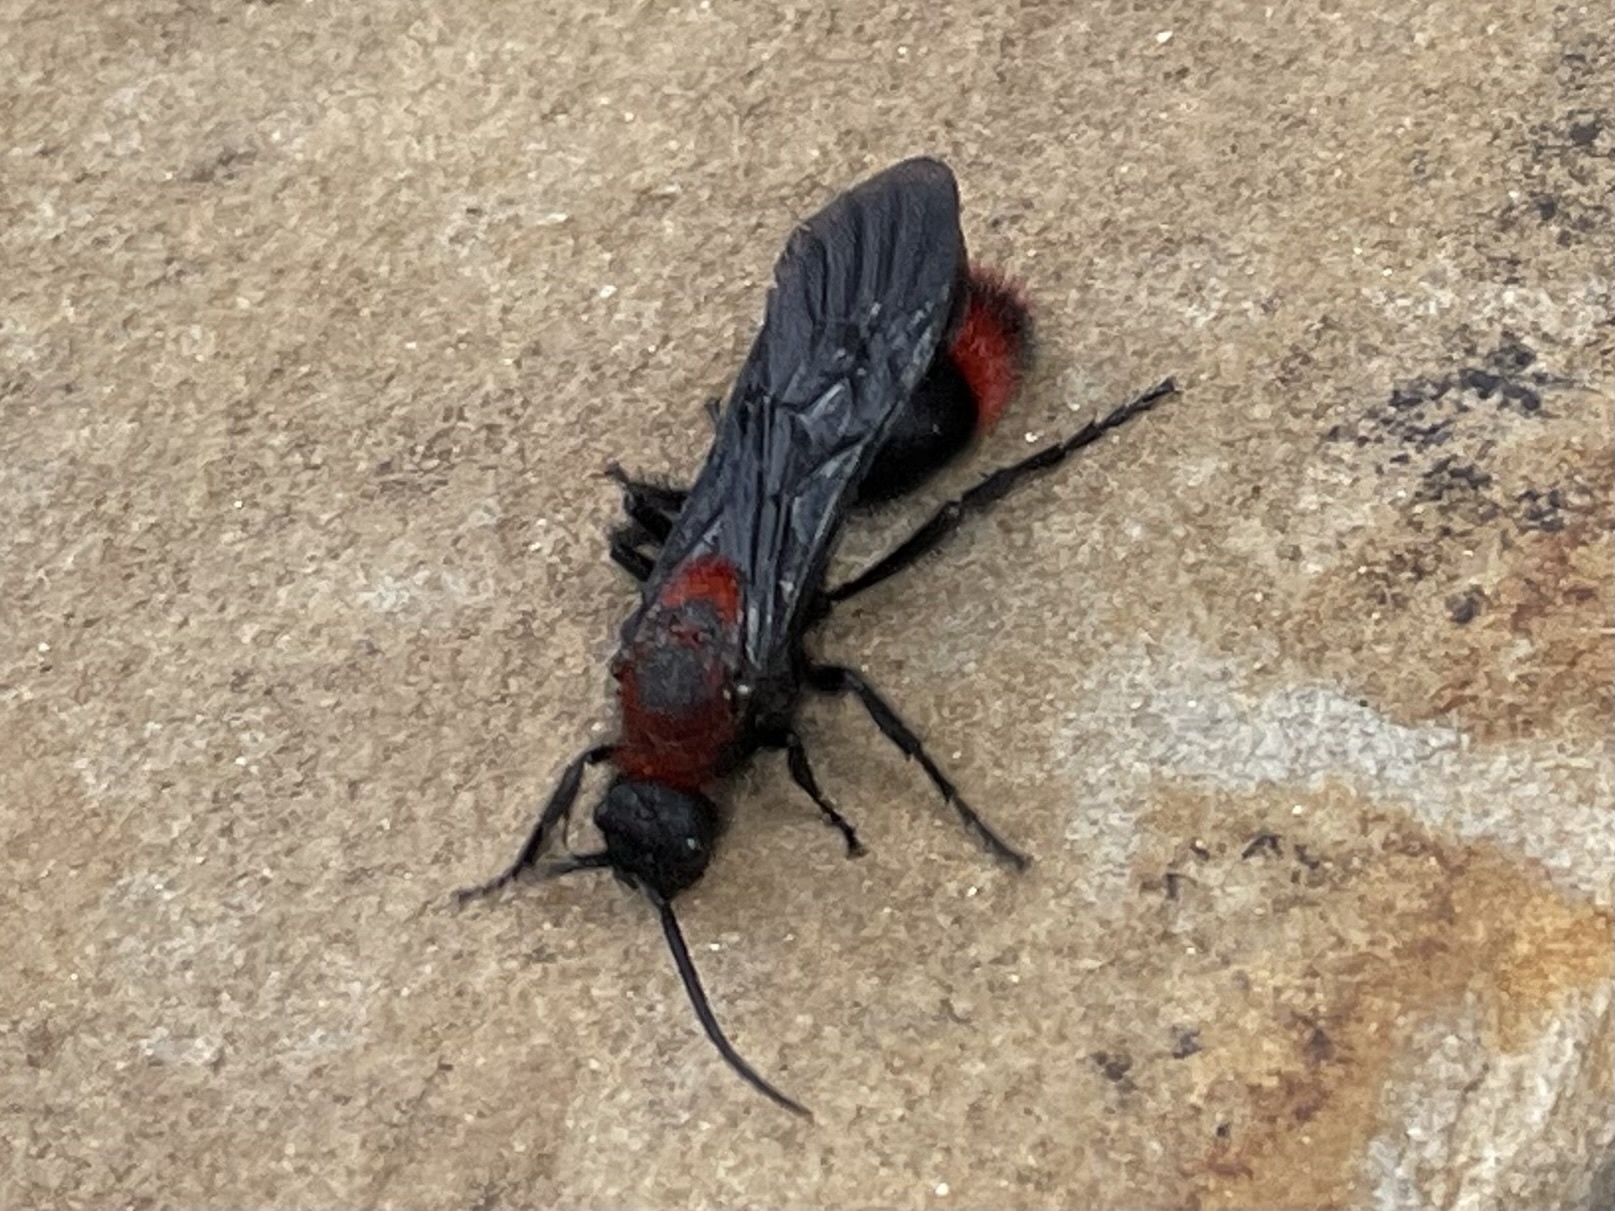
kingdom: Animalia
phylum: Arthropoda
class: Insecta
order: Hymenoptera
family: Mutillidae
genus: Dasymutilla
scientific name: Dasymutilla occidentalis
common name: Common eastern velvet ant
